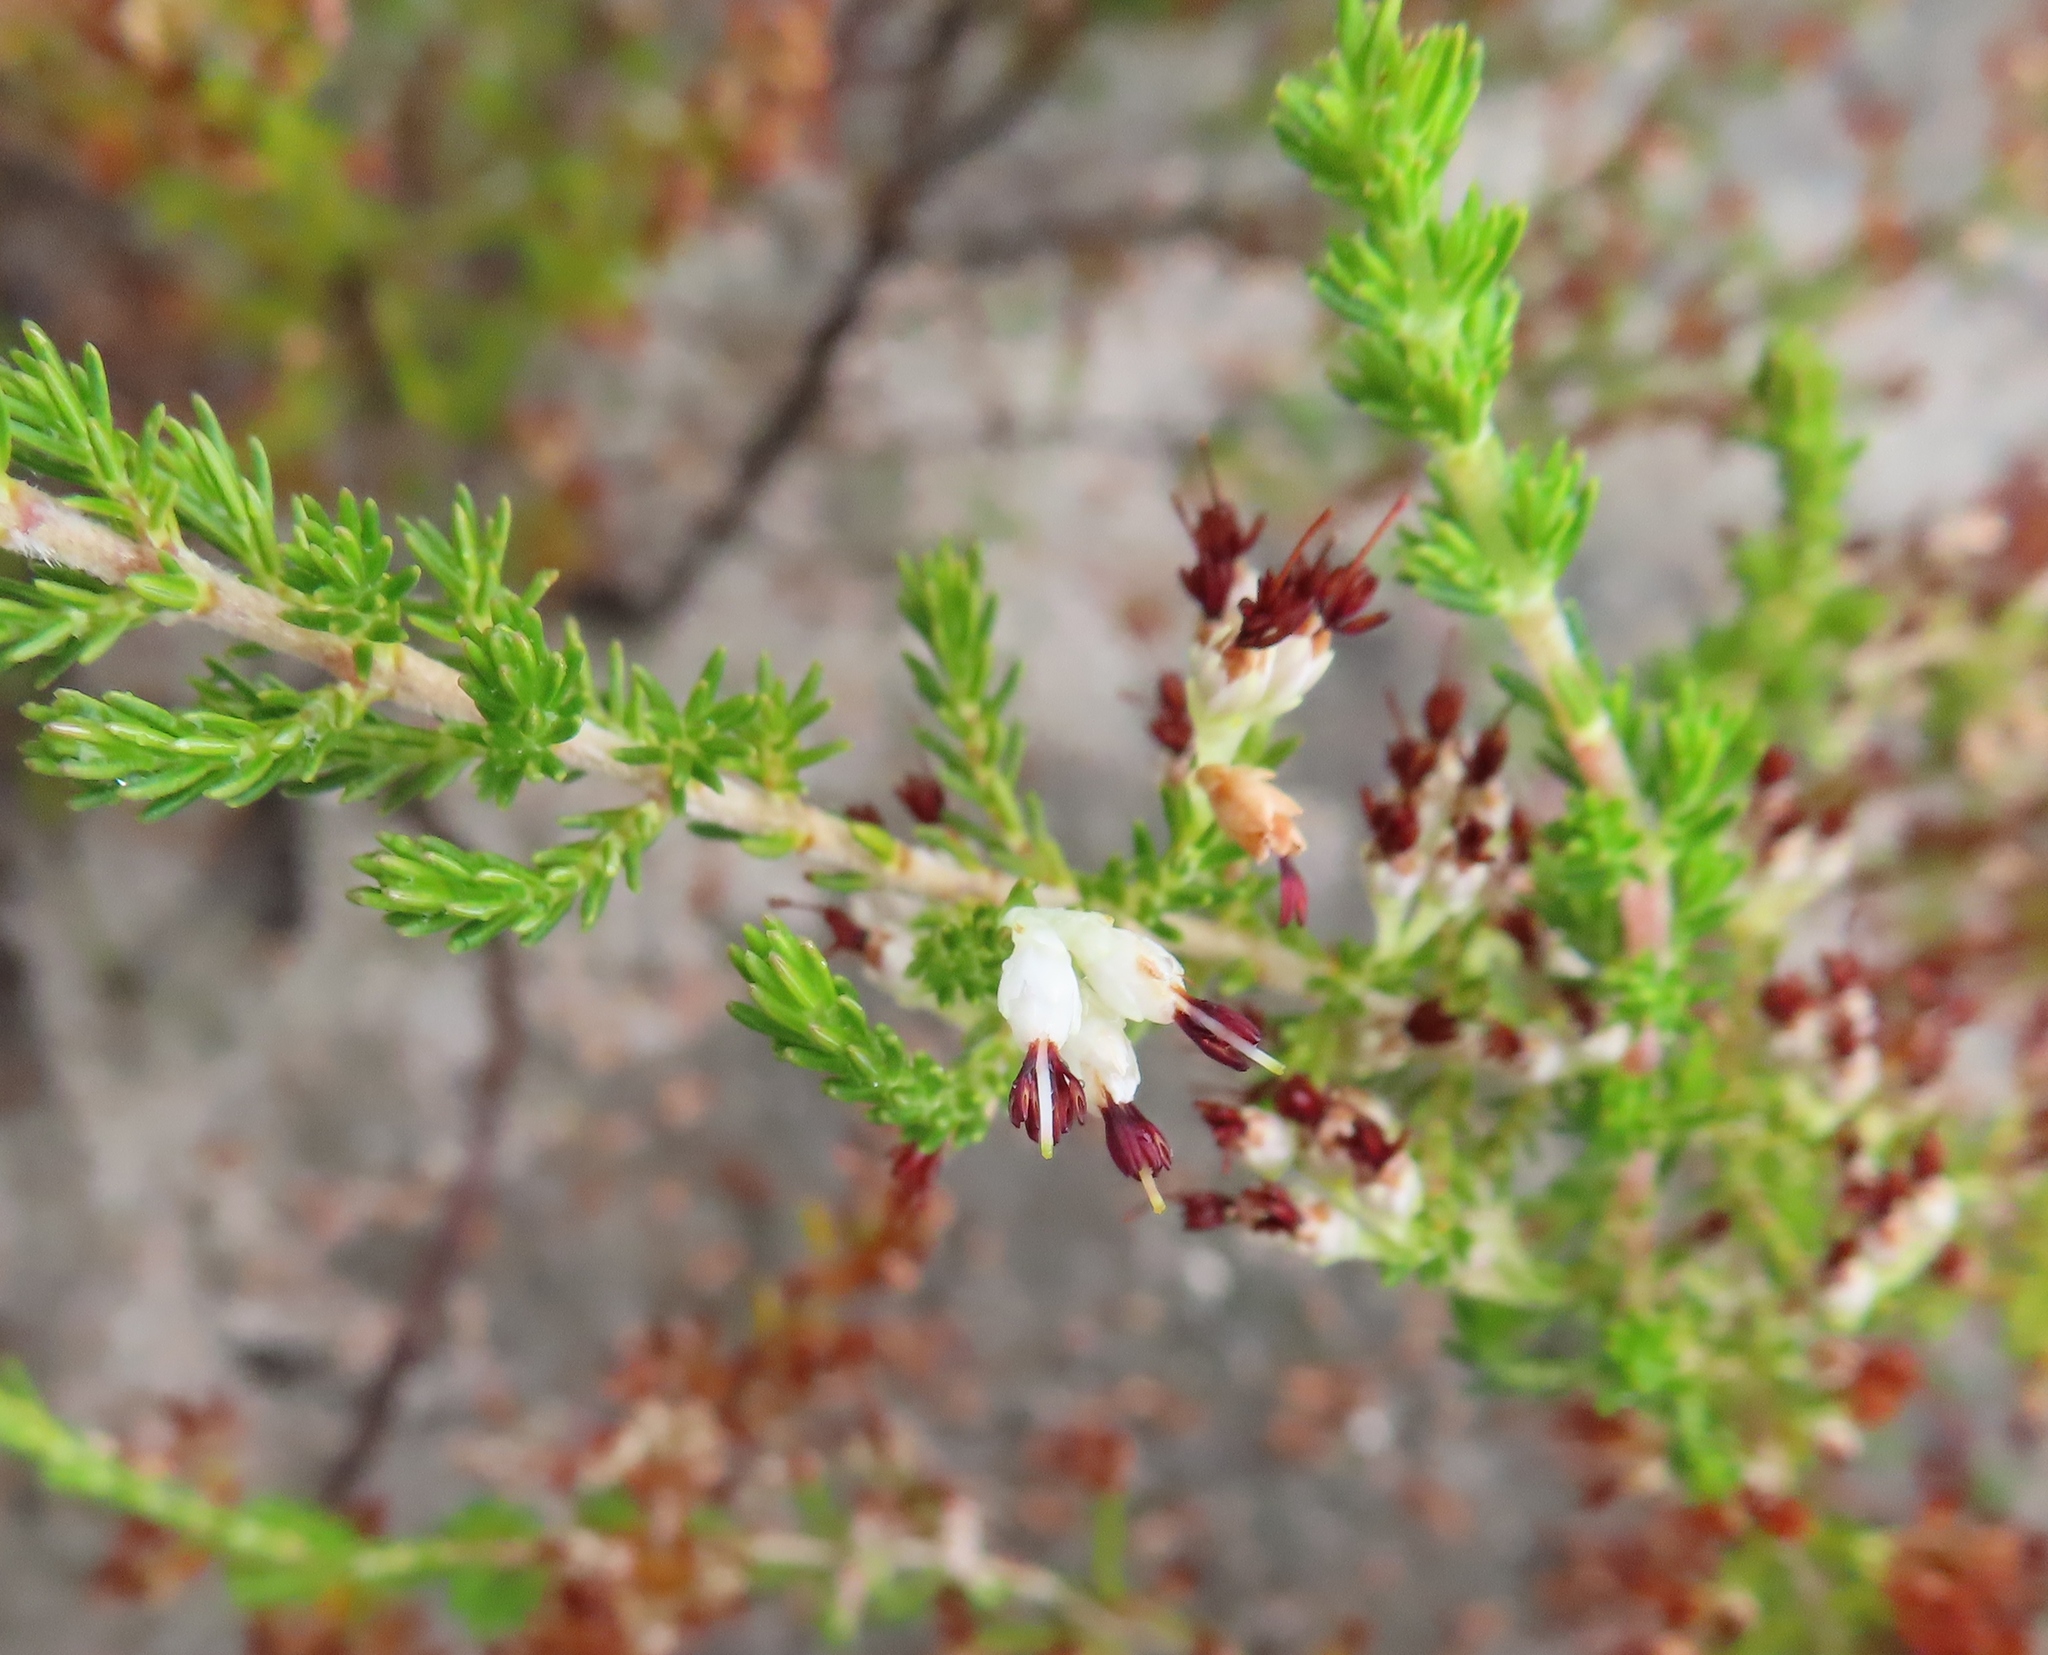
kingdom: Plantae
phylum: Tracheophyta
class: Magnoliopsida
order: Ericales
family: Ericaceae
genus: Erica
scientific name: Erica imbricata
